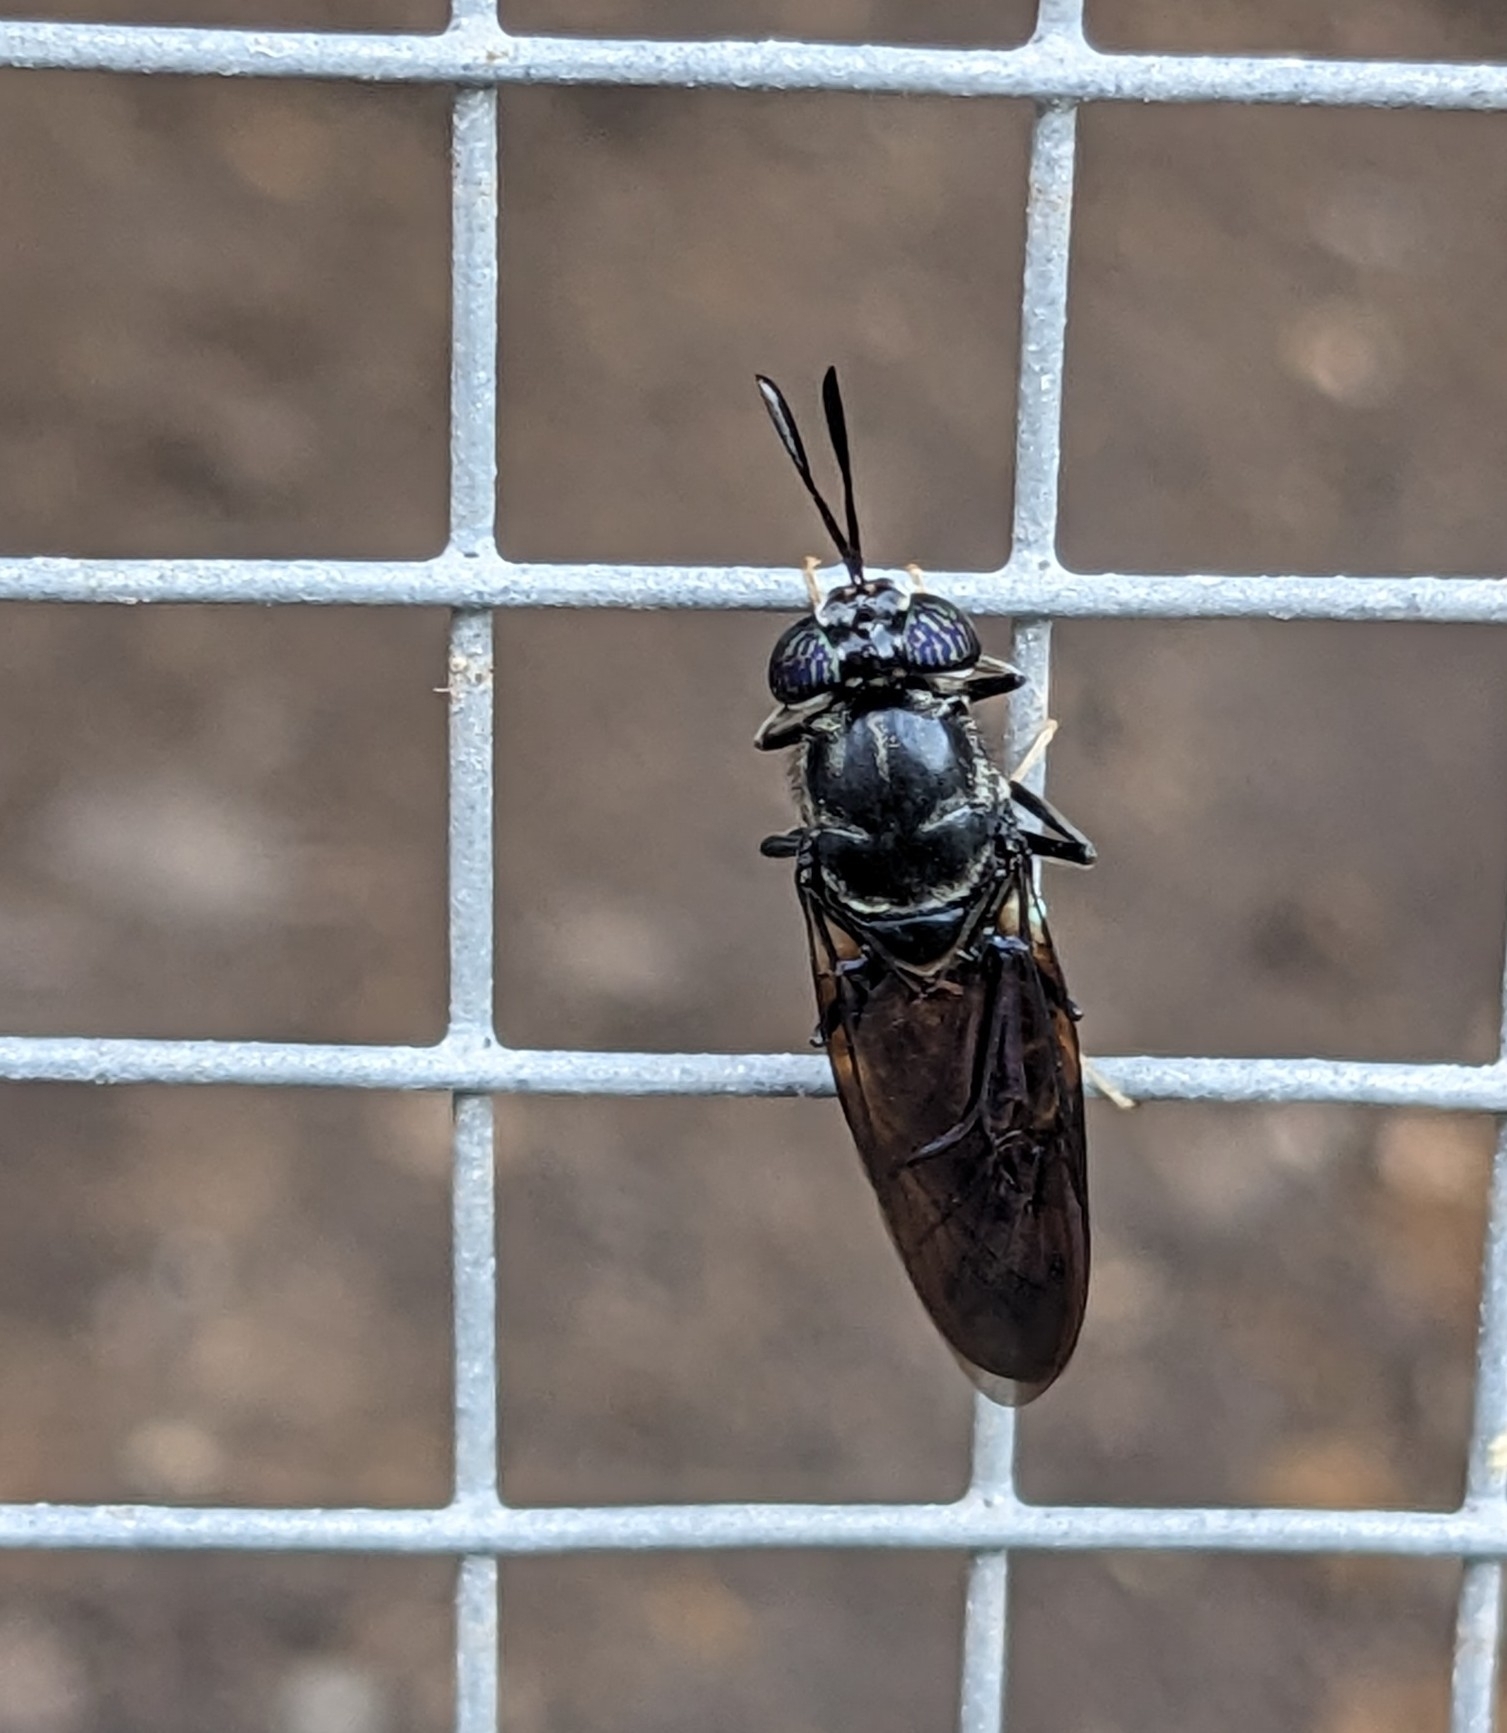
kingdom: Animalia
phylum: Arthropoda
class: Insecta
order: Diptera
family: Stratiomyidae
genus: Hermetia
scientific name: Hermetia illucens
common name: Black soldier fly
